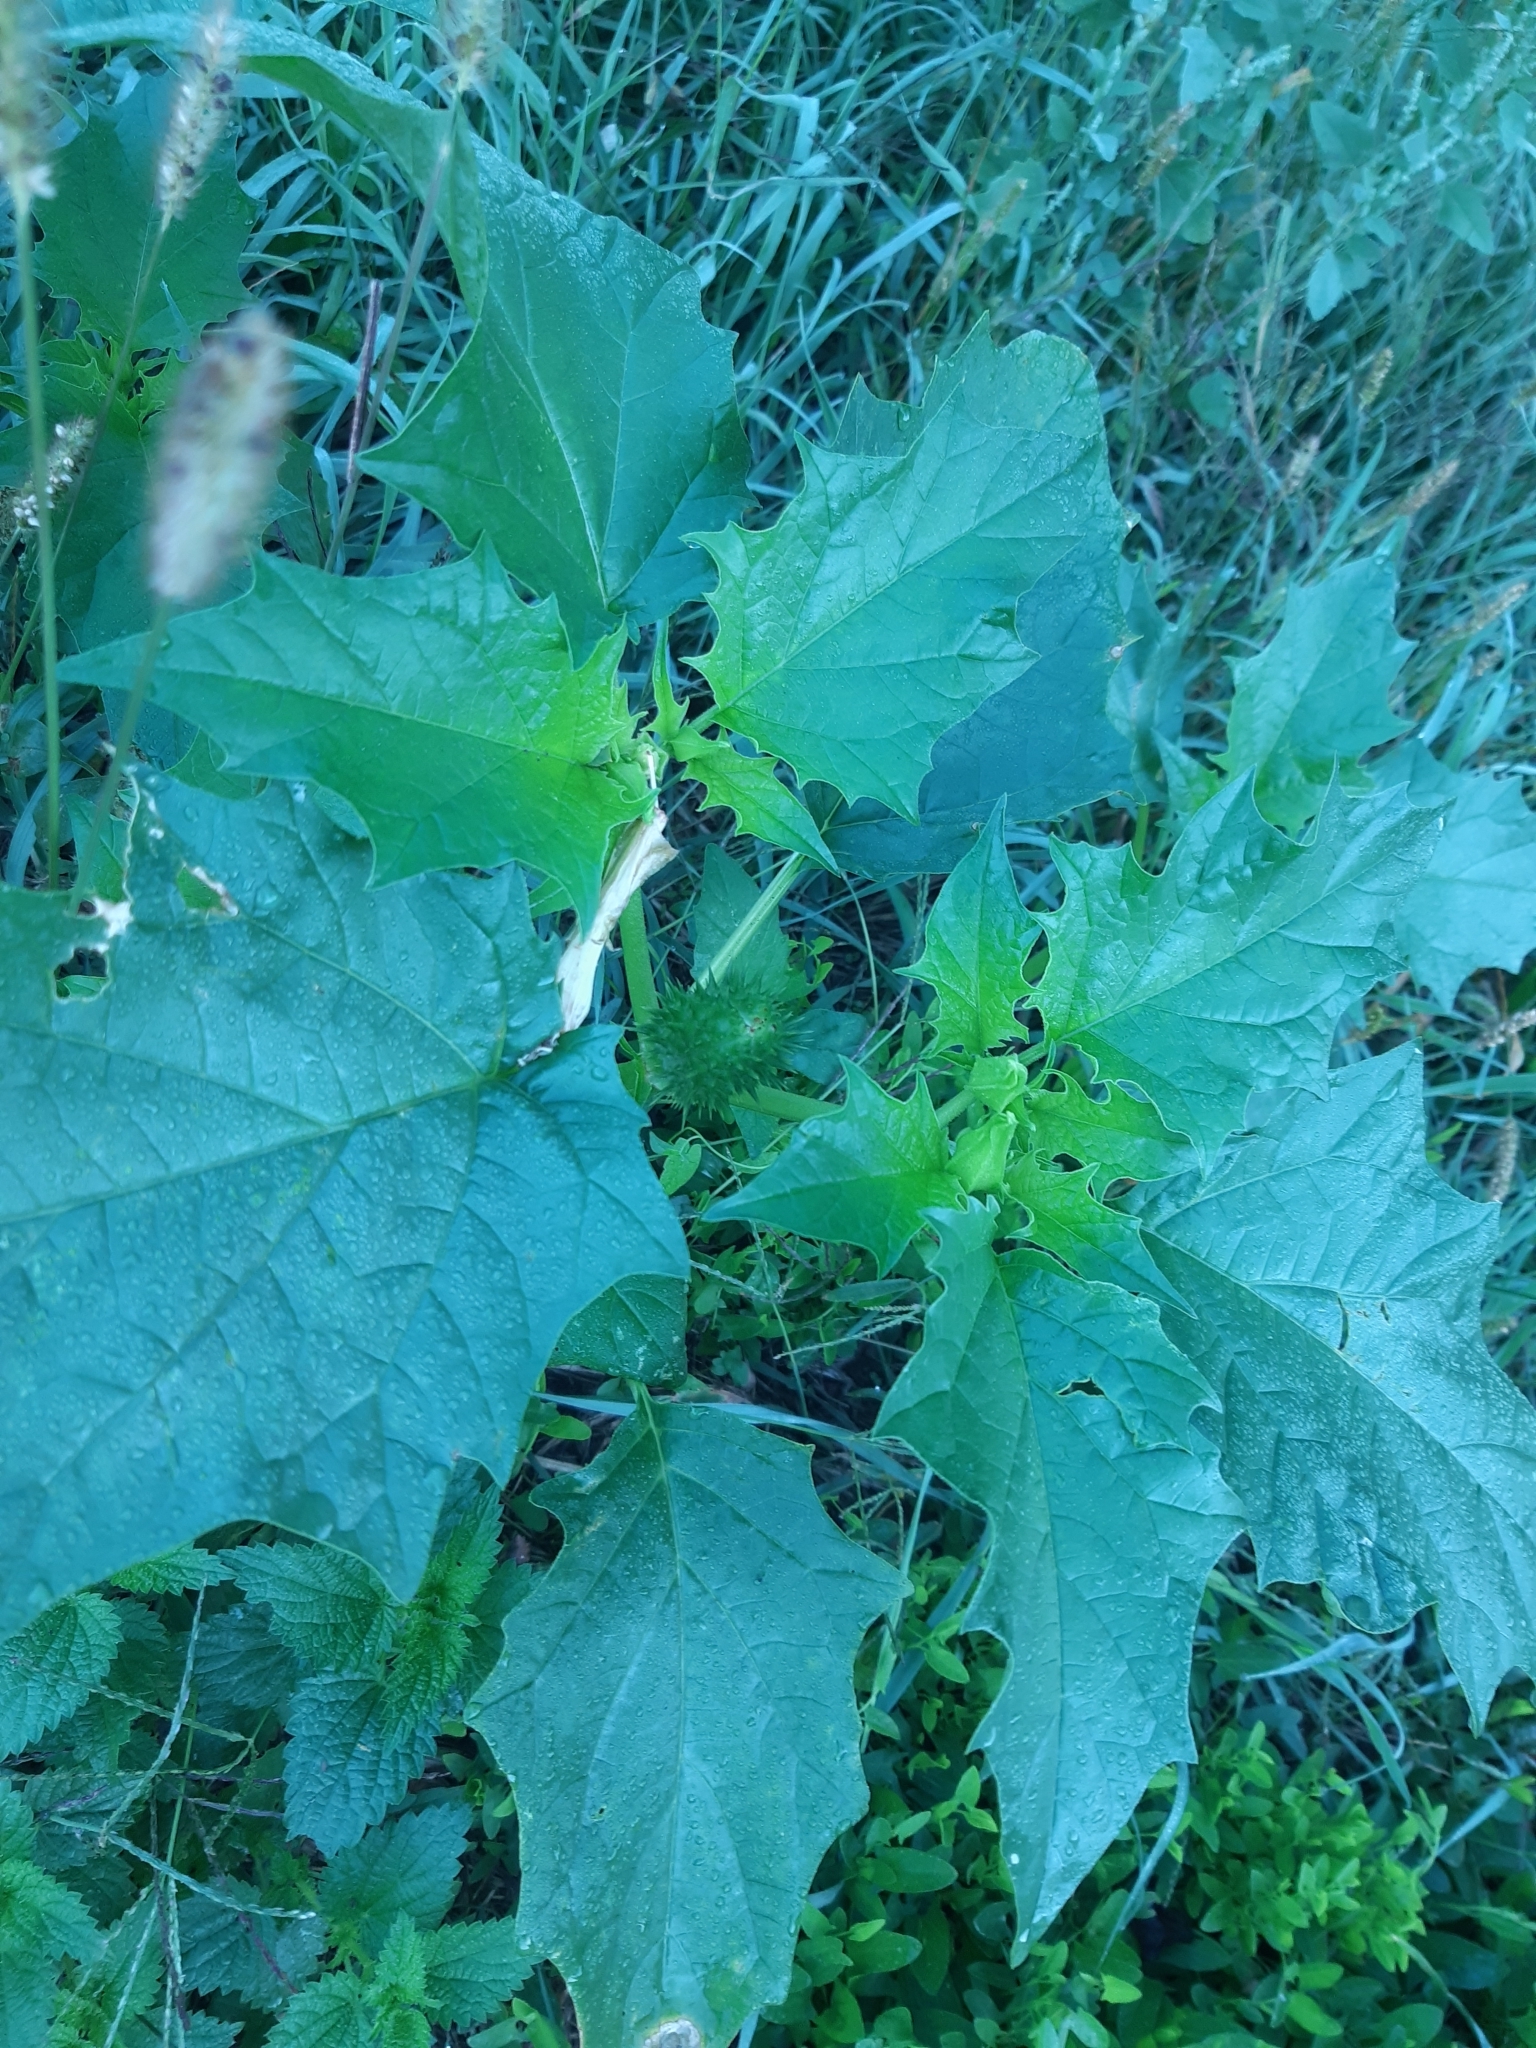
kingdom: Plantae
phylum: Tracheophyta
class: Magnoliopsida
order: Solanales
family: Solanaceae
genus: Datura
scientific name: Datura stramonium
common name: Thorn-apple
